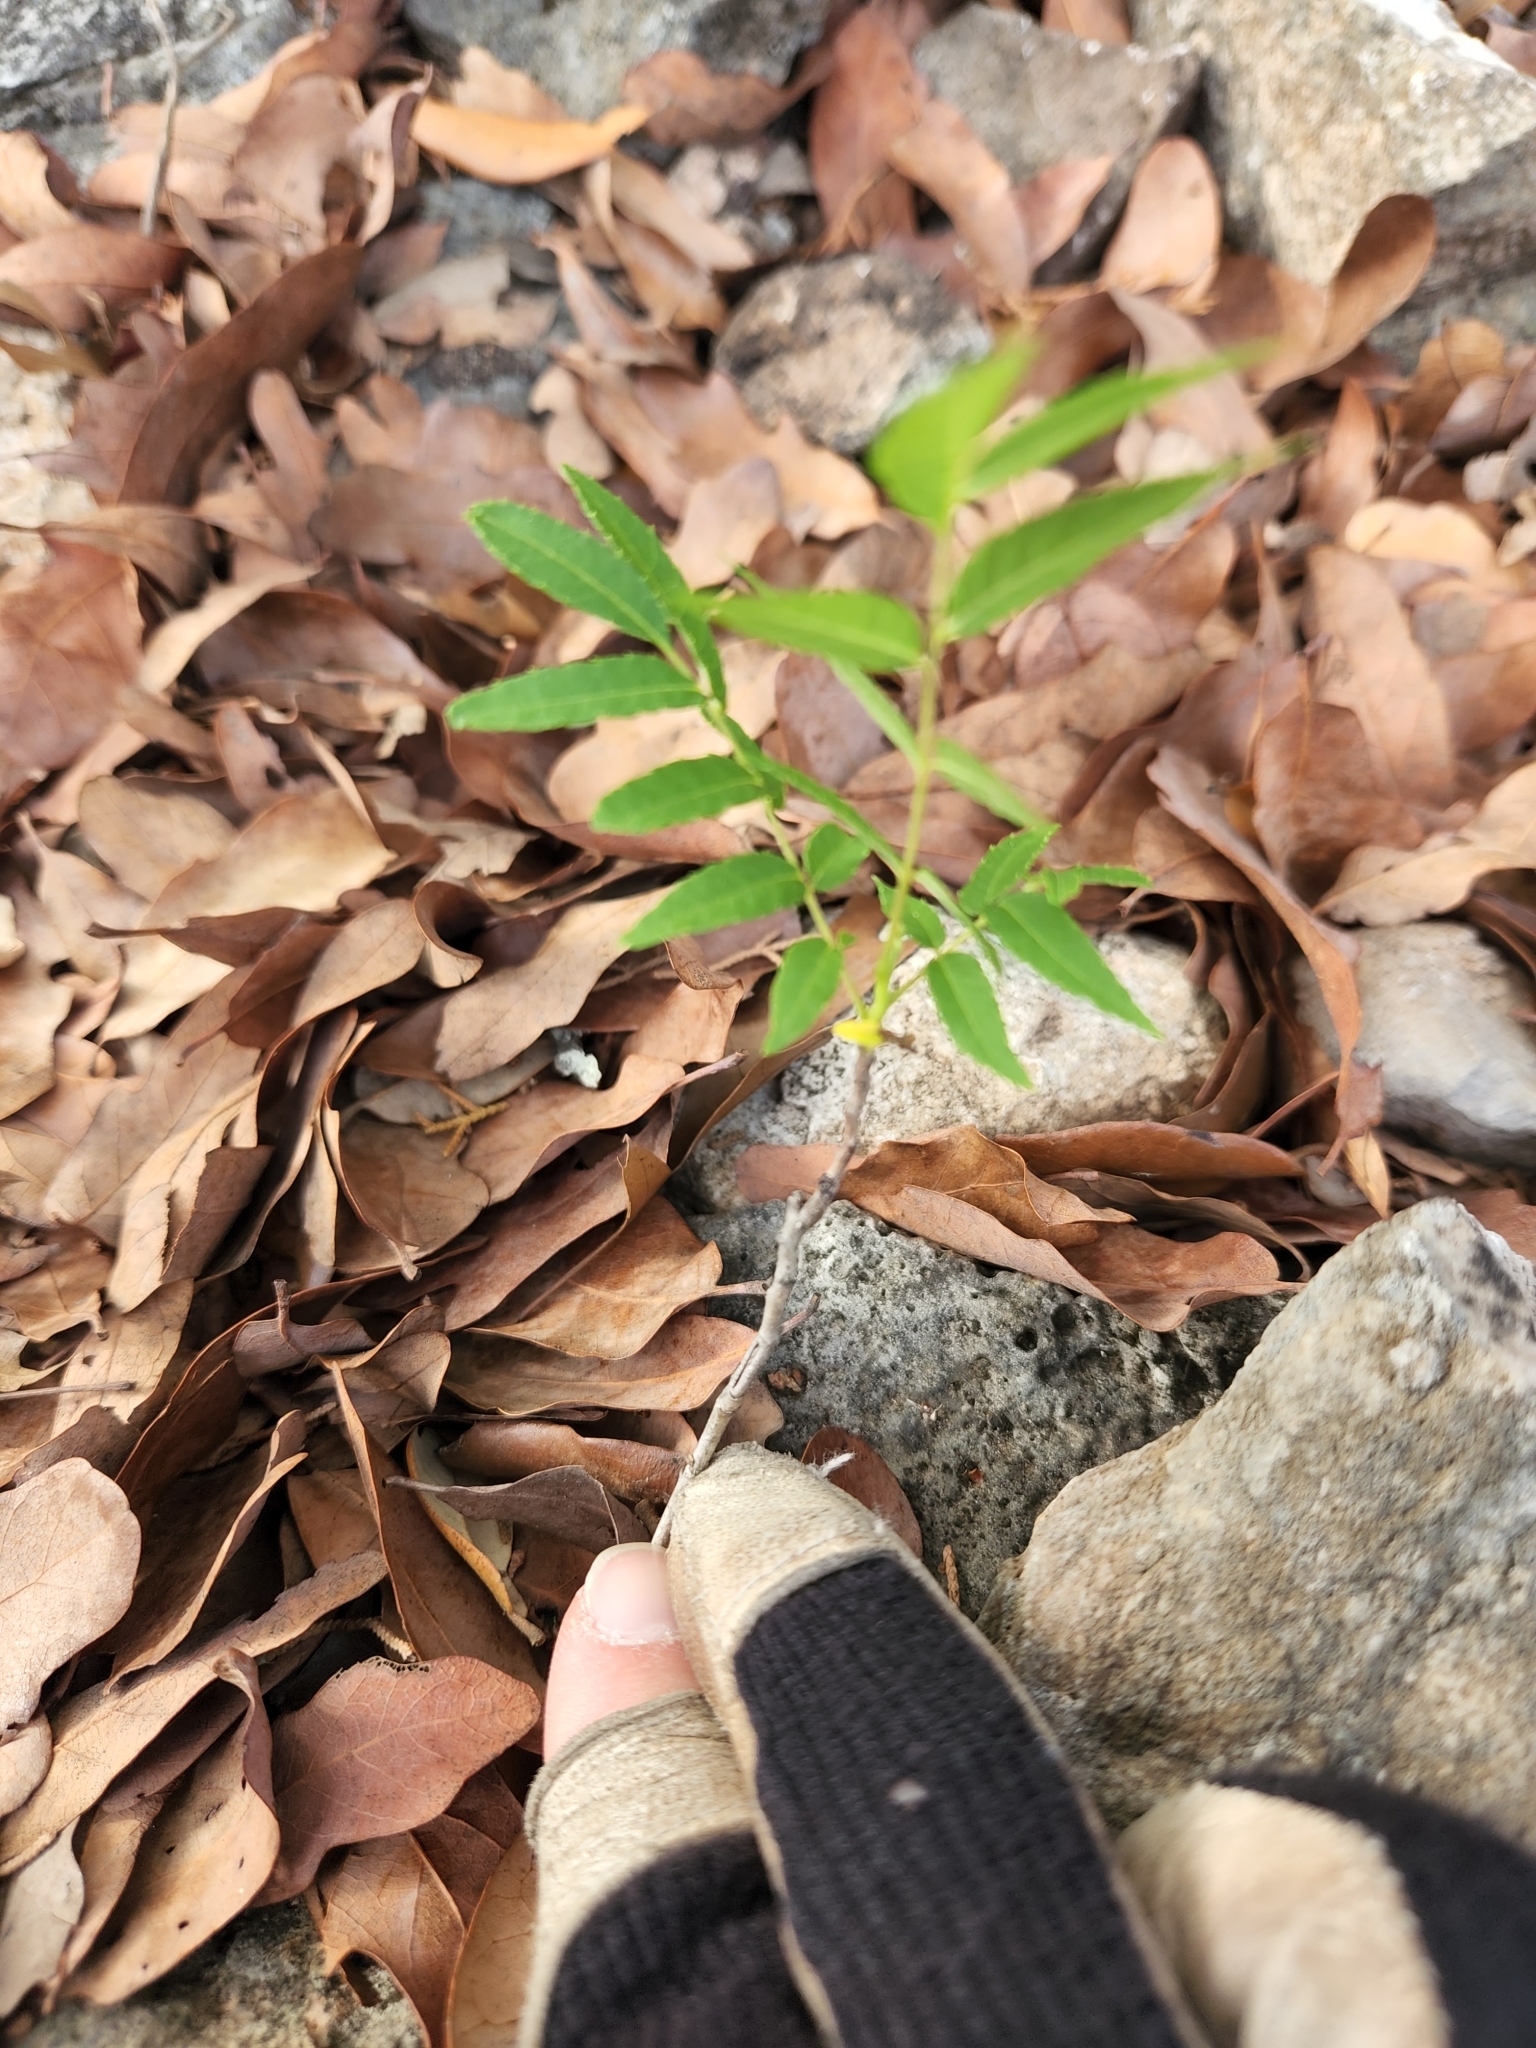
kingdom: Plantae
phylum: Tracheophyta
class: Magnoliopsida
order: Fagales
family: Juglandaceae
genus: Juglans
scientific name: Juglans microcarpa
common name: Texas walnut
